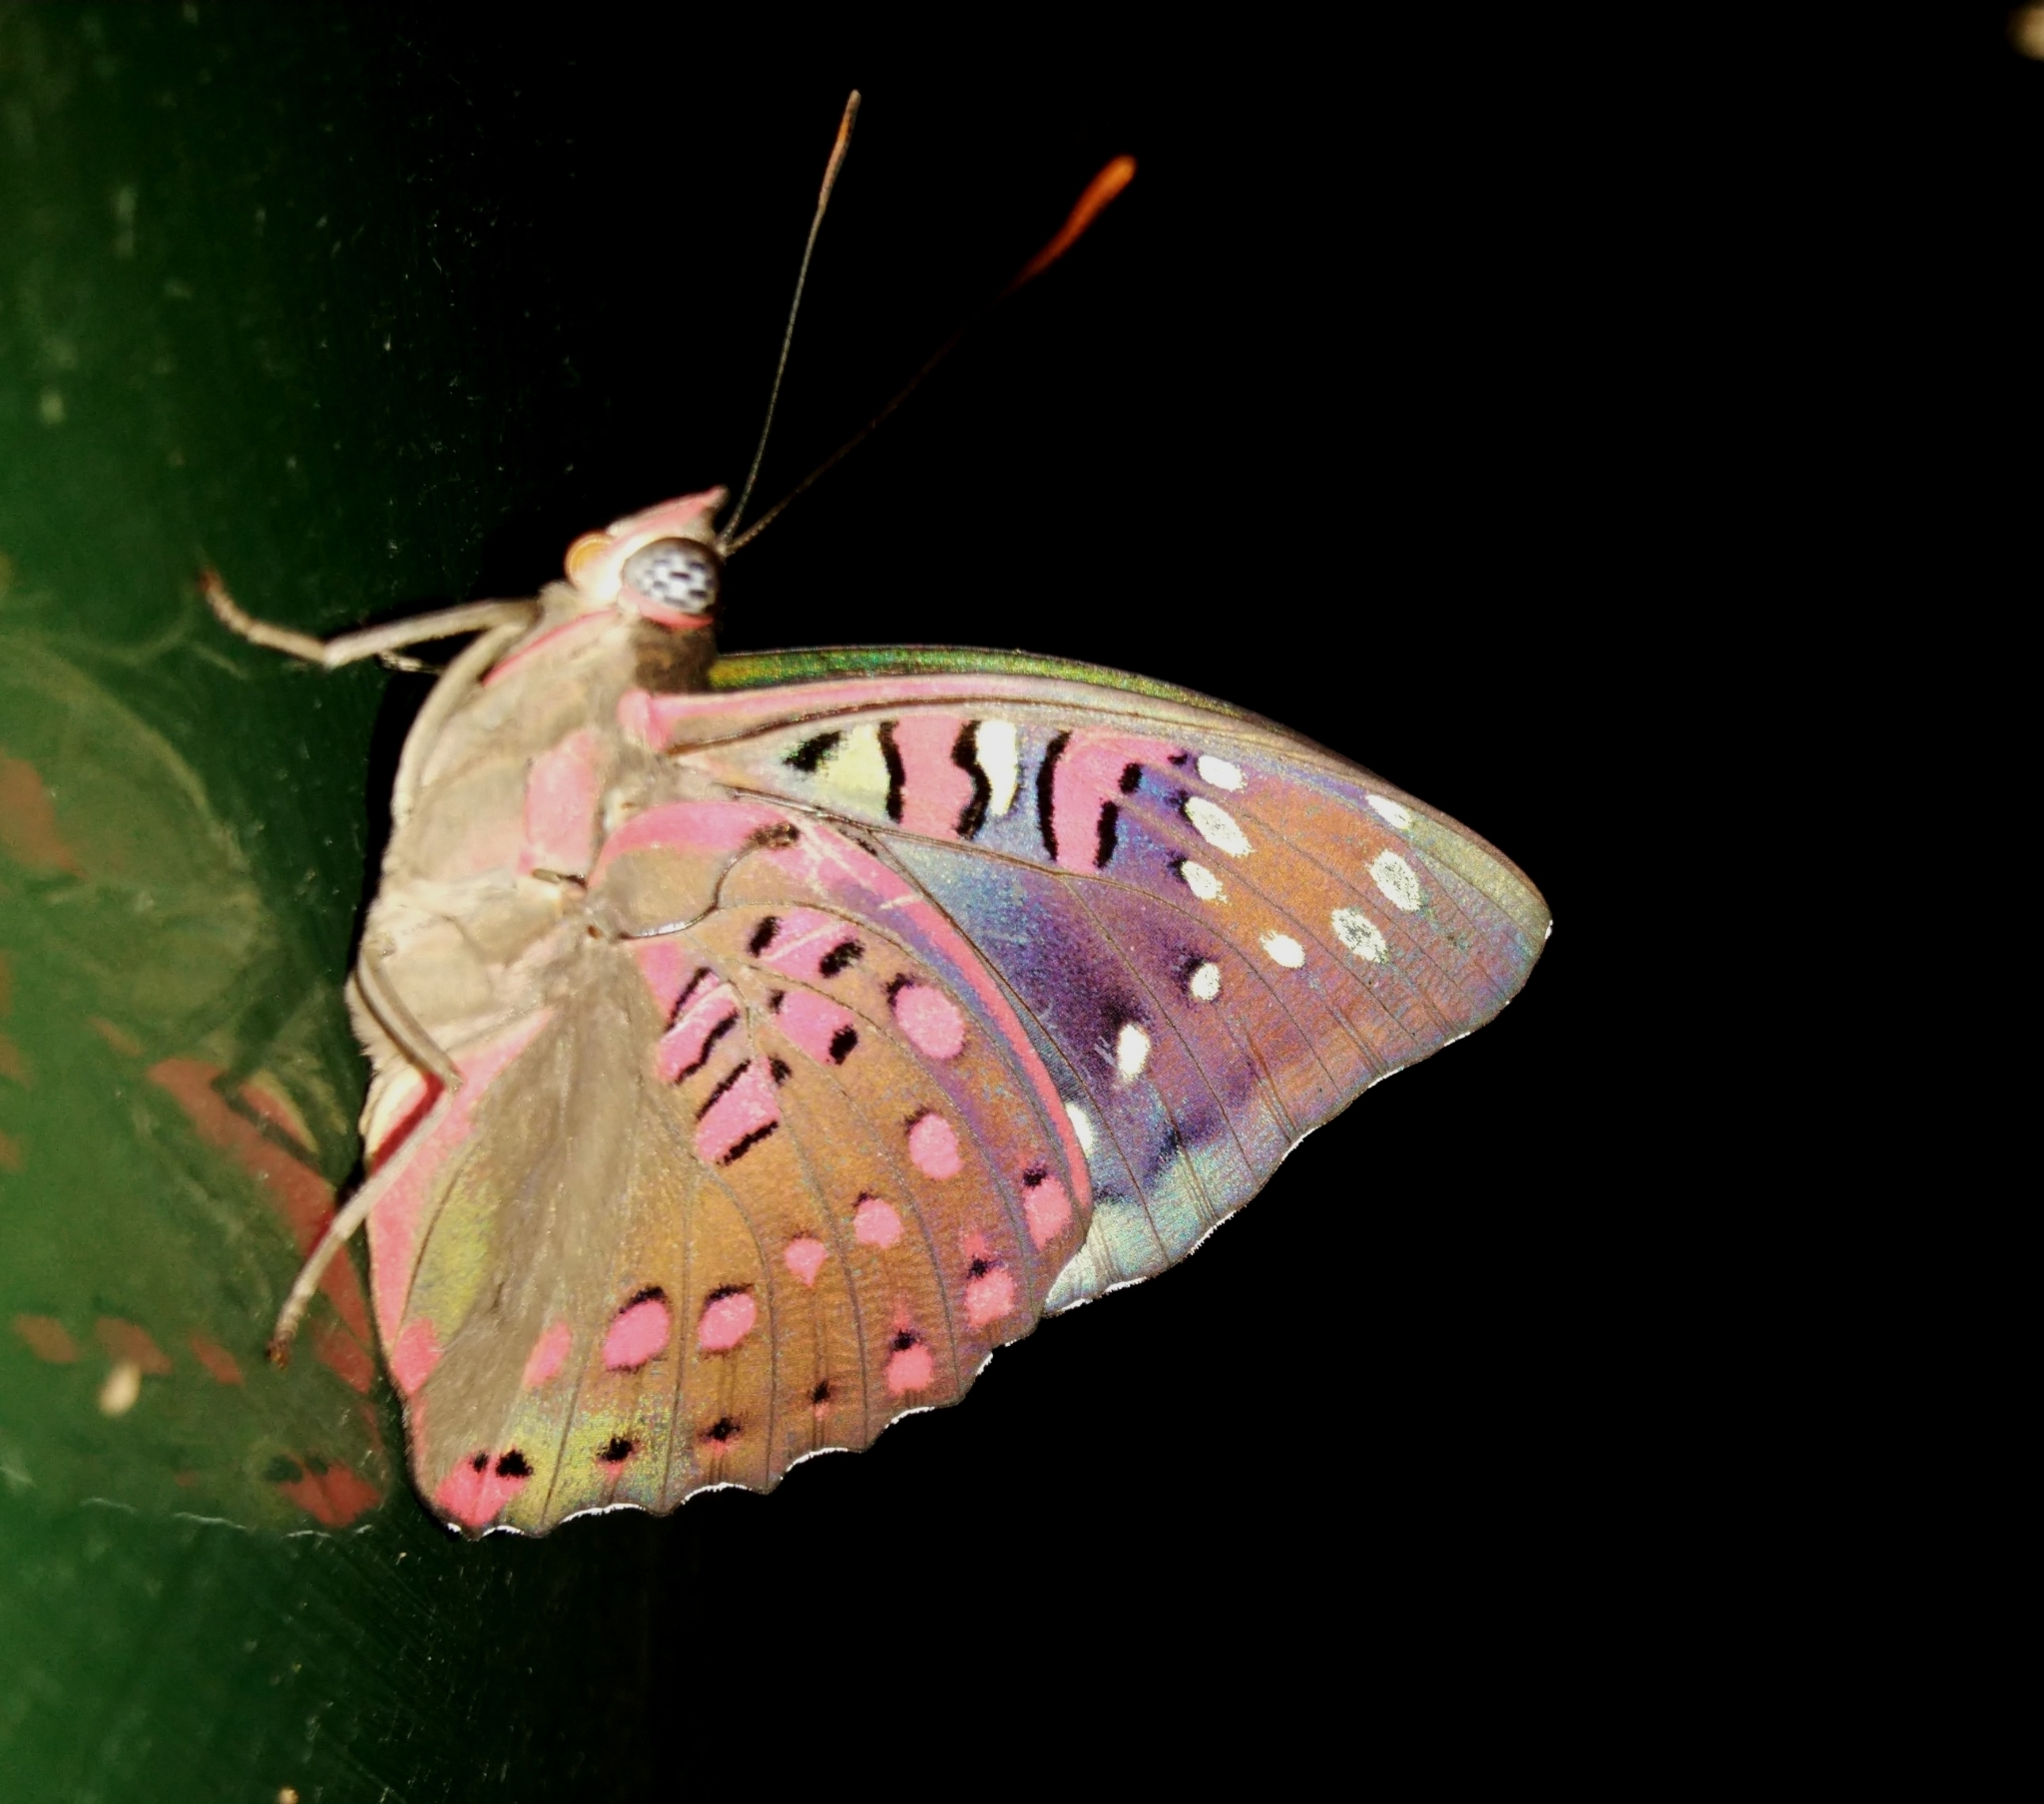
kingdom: Animalia
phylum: Arthropoda
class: Insecta
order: Lepidoptera
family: Nymphalidae
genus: Euthalia
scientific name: Euthalia lubentina
